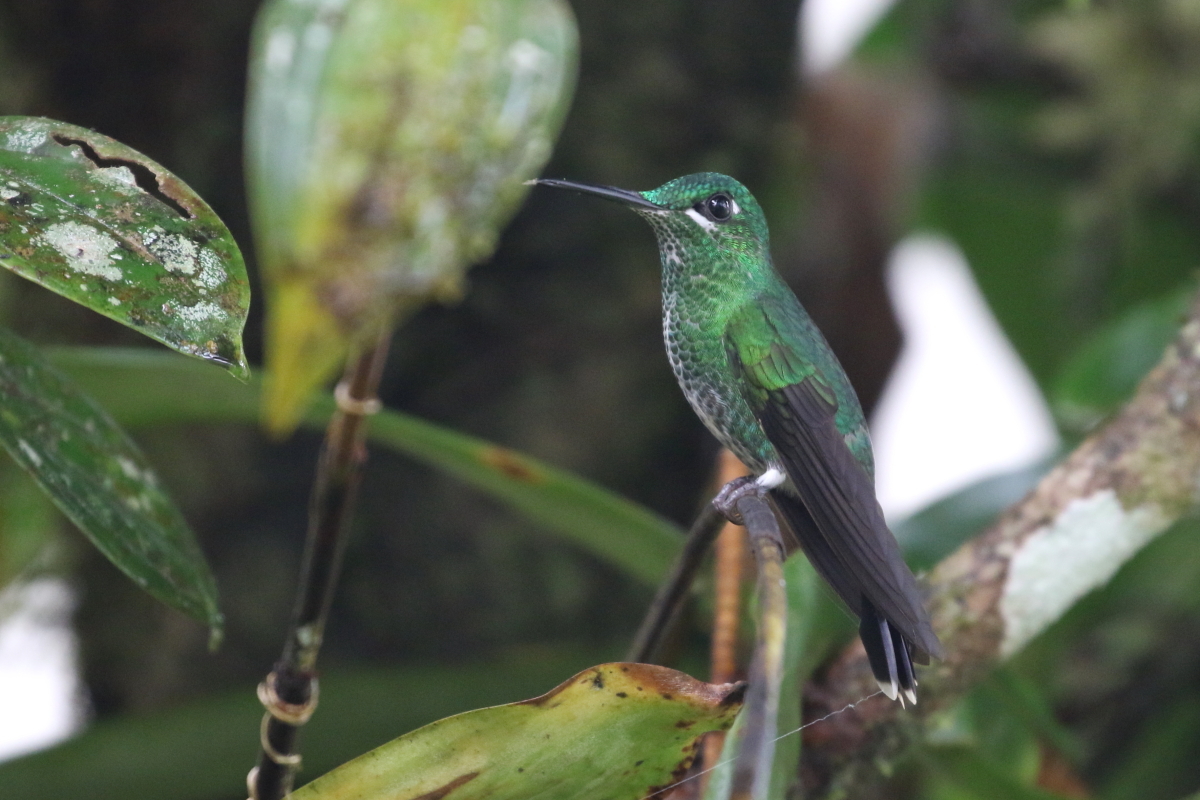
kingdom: Animalia
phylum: Chordata
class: Aves
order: Apodiformes
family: Trochilidae
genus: Heliodoxa
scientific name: Heliodoxa jacula
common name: Green-crowned brilliant
